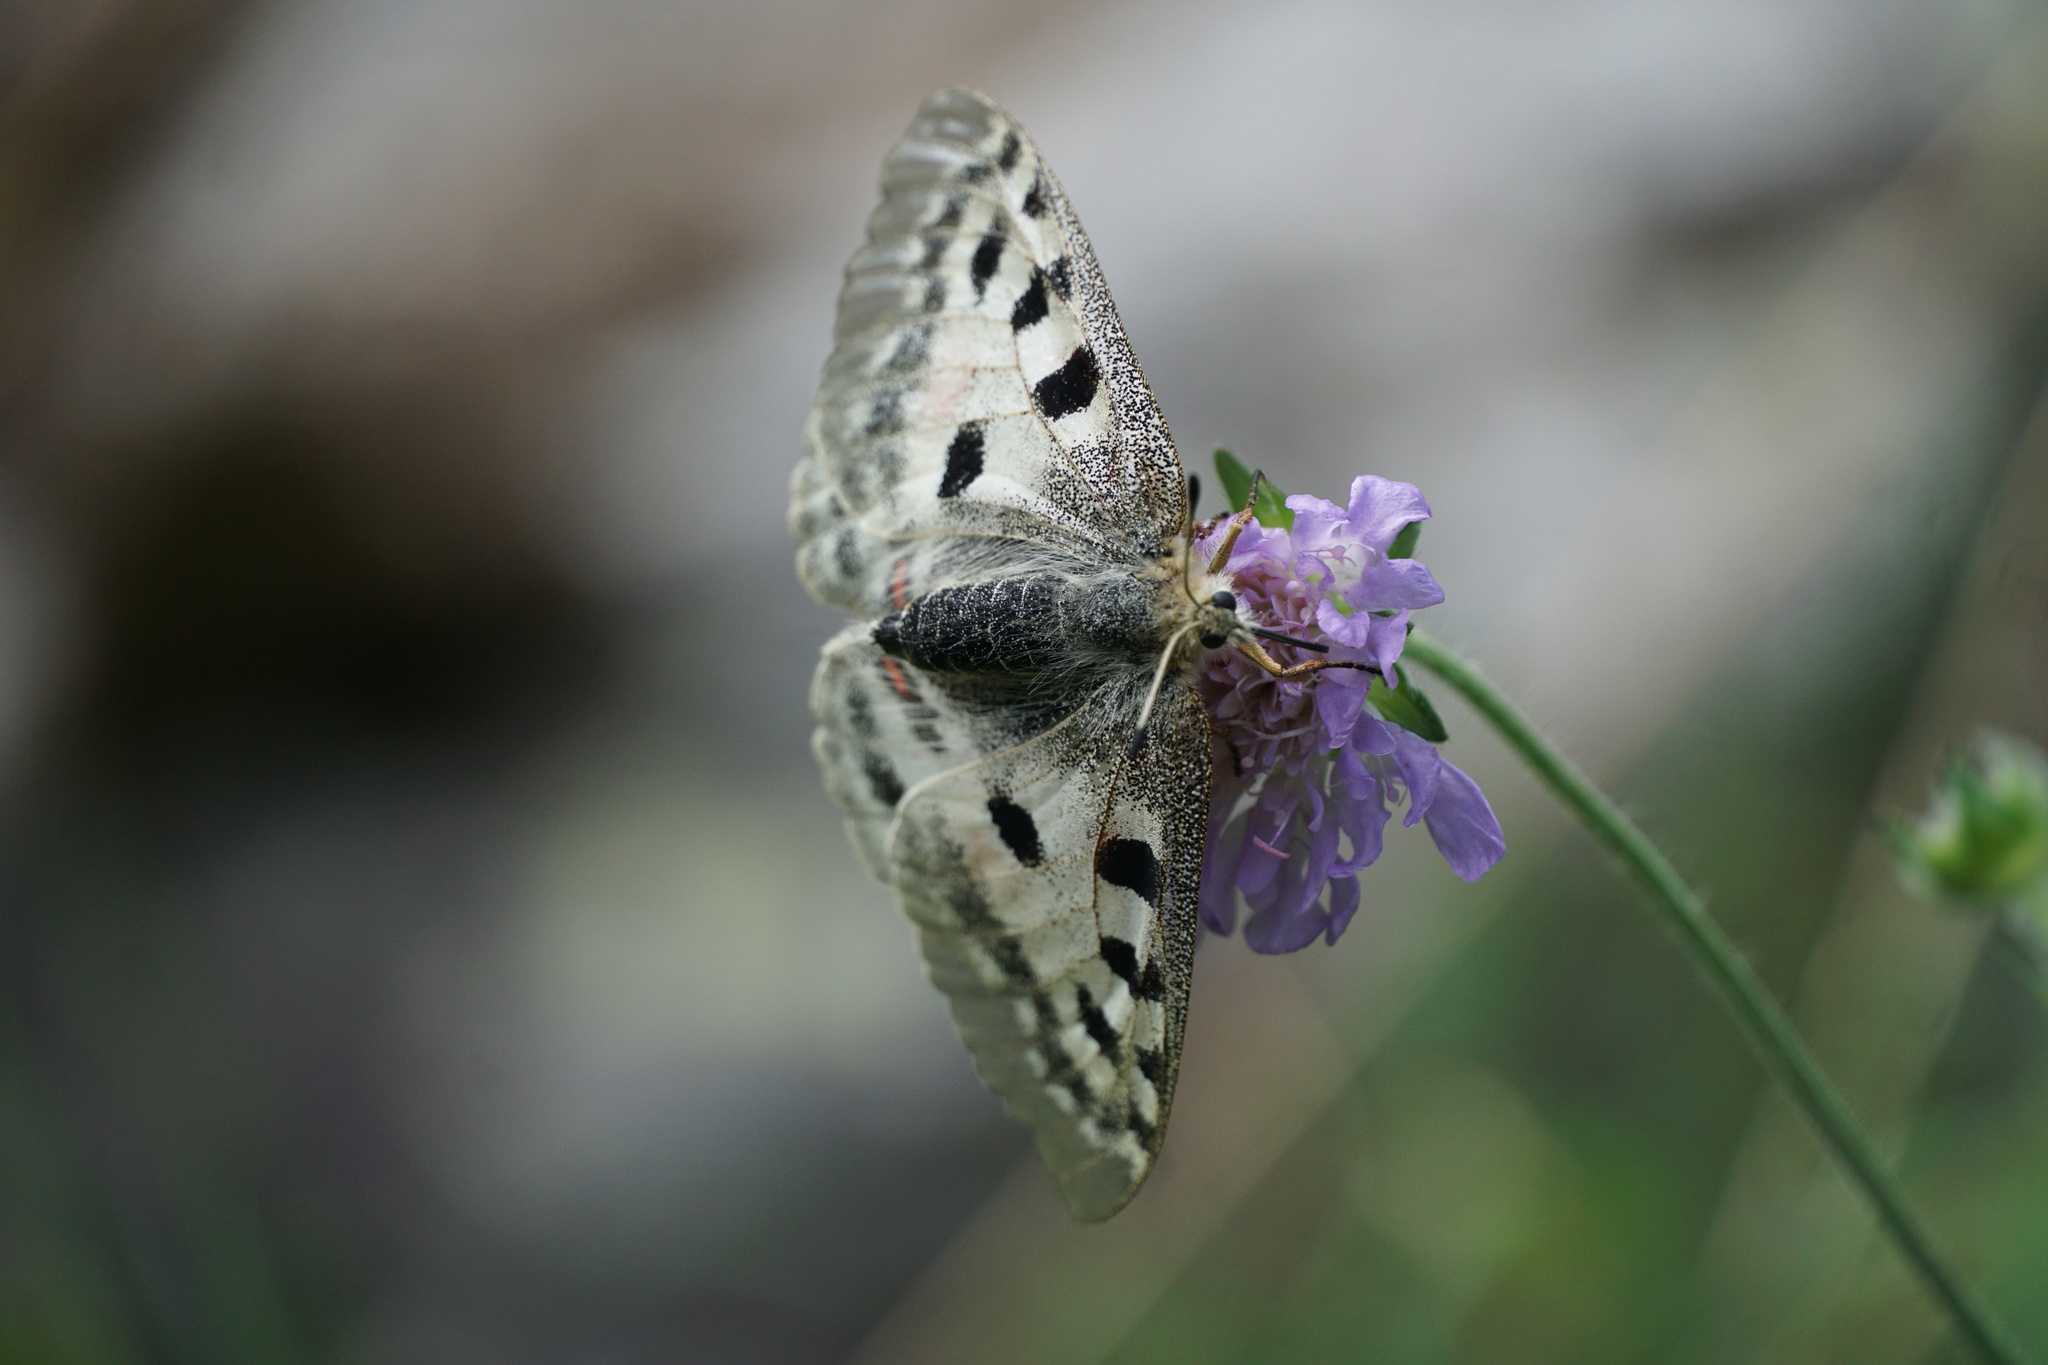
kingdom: Animalia
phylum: Arthropoda
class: Insecta
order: Lepidoptera
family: Papilionidae
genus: Parnassius
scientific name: Parnassius apollo
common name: Apollo
